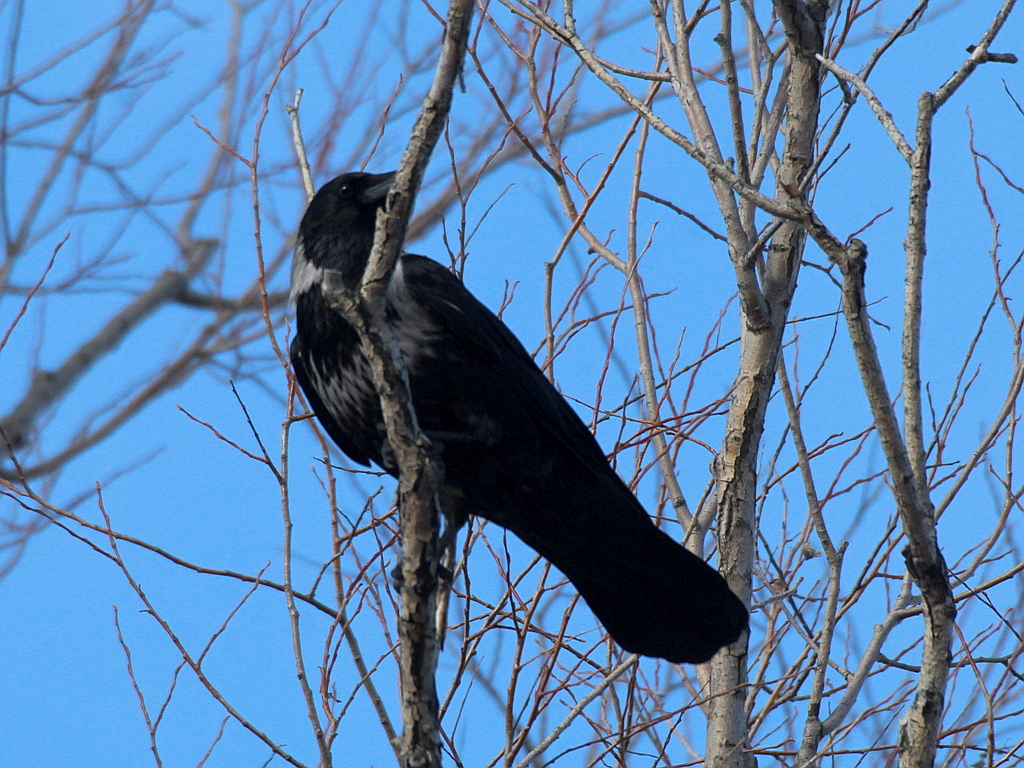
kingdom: Animalia
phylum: Chordata
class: Aves
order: Passeriformes
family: Corvidae
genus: Corvus
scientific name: Corvus
